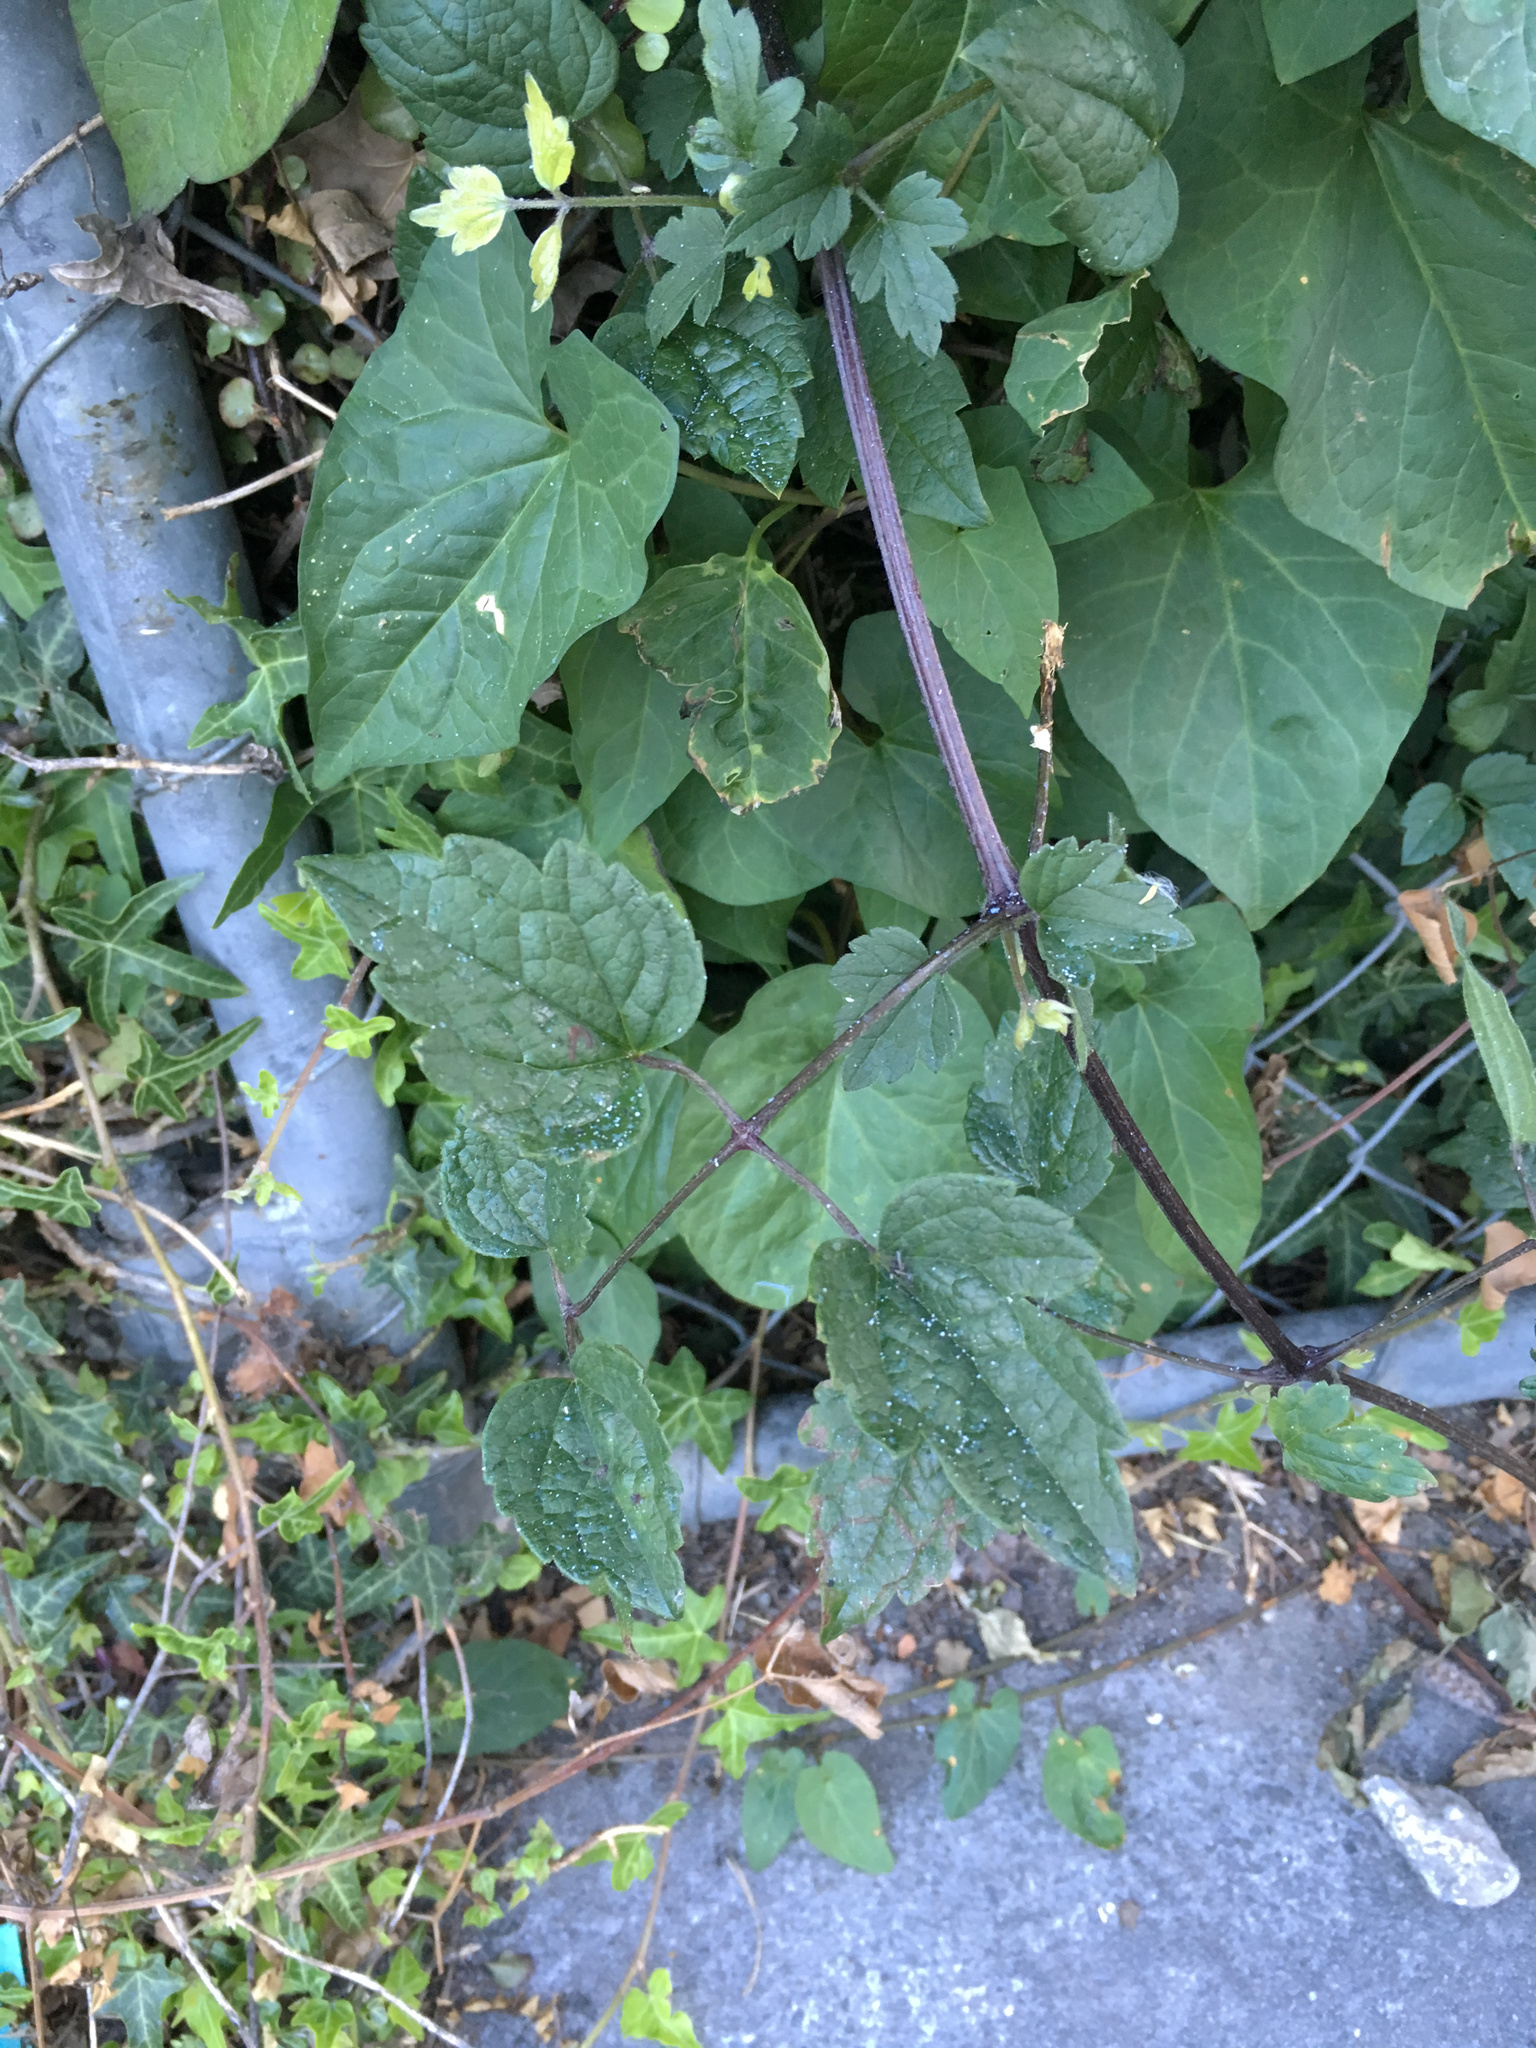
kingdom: Plantae
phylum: Tracheophyta
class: Magnoliopsida
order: Ranunculales
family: Ranunculaceae
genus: Clematis
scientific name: Clematis vitalba
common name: Evergreen clematis
